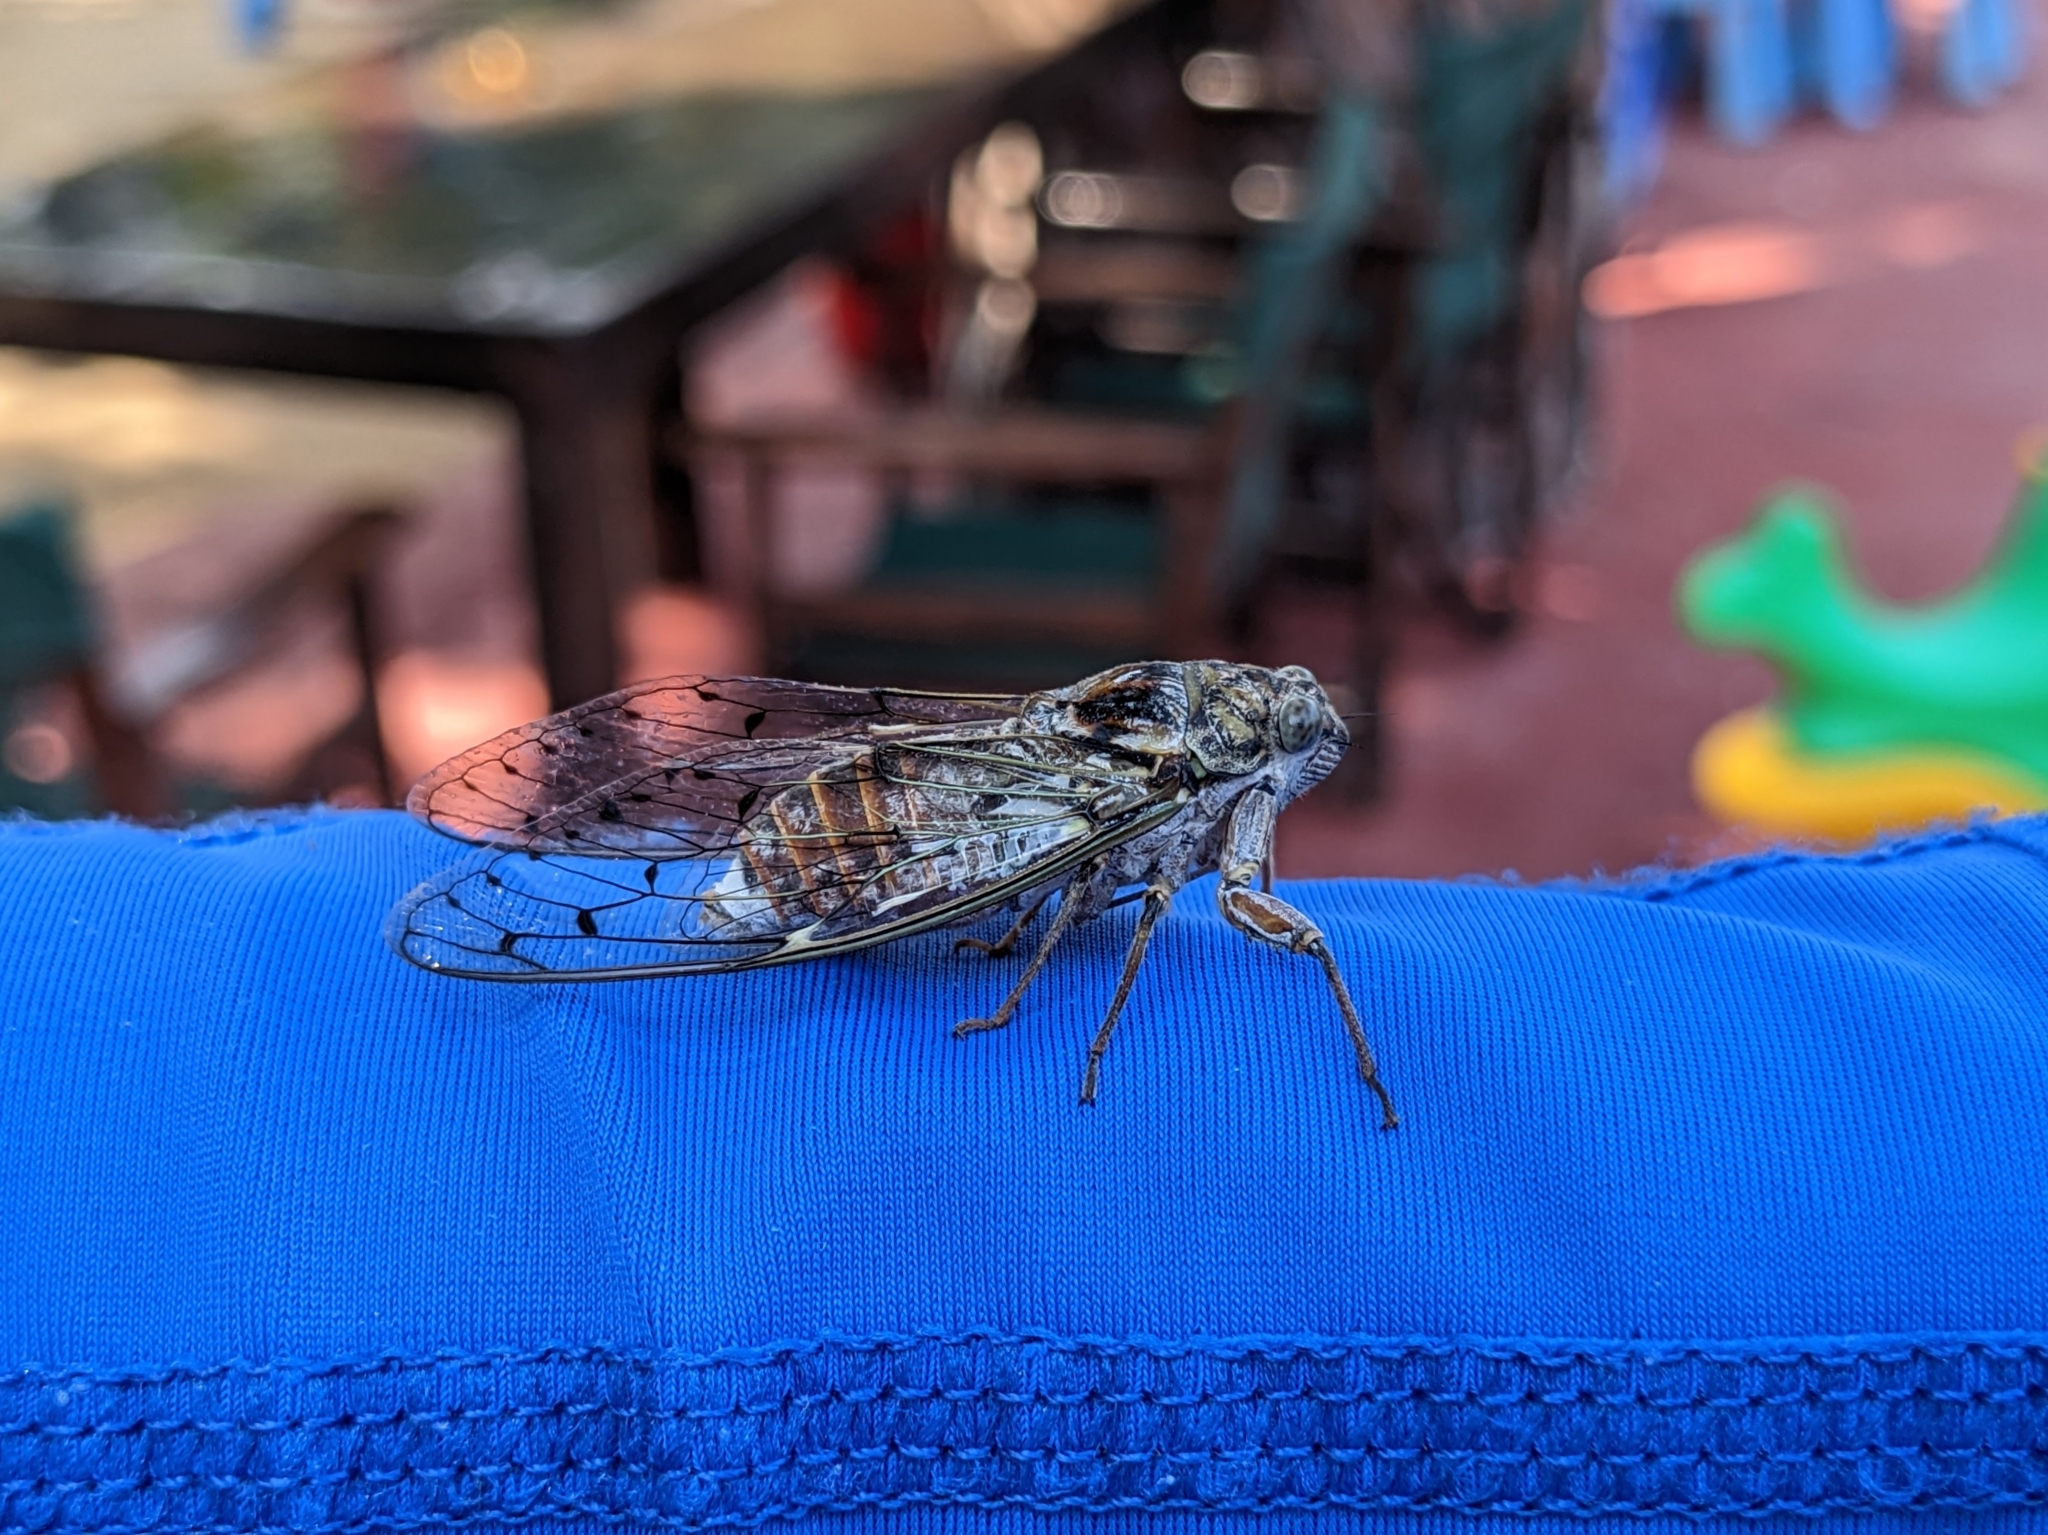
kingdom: Animalia
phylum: Arthropoda
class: Insecta
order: Hemiptera
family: Cicadidae
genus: Cicada
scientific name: Cicada orni
